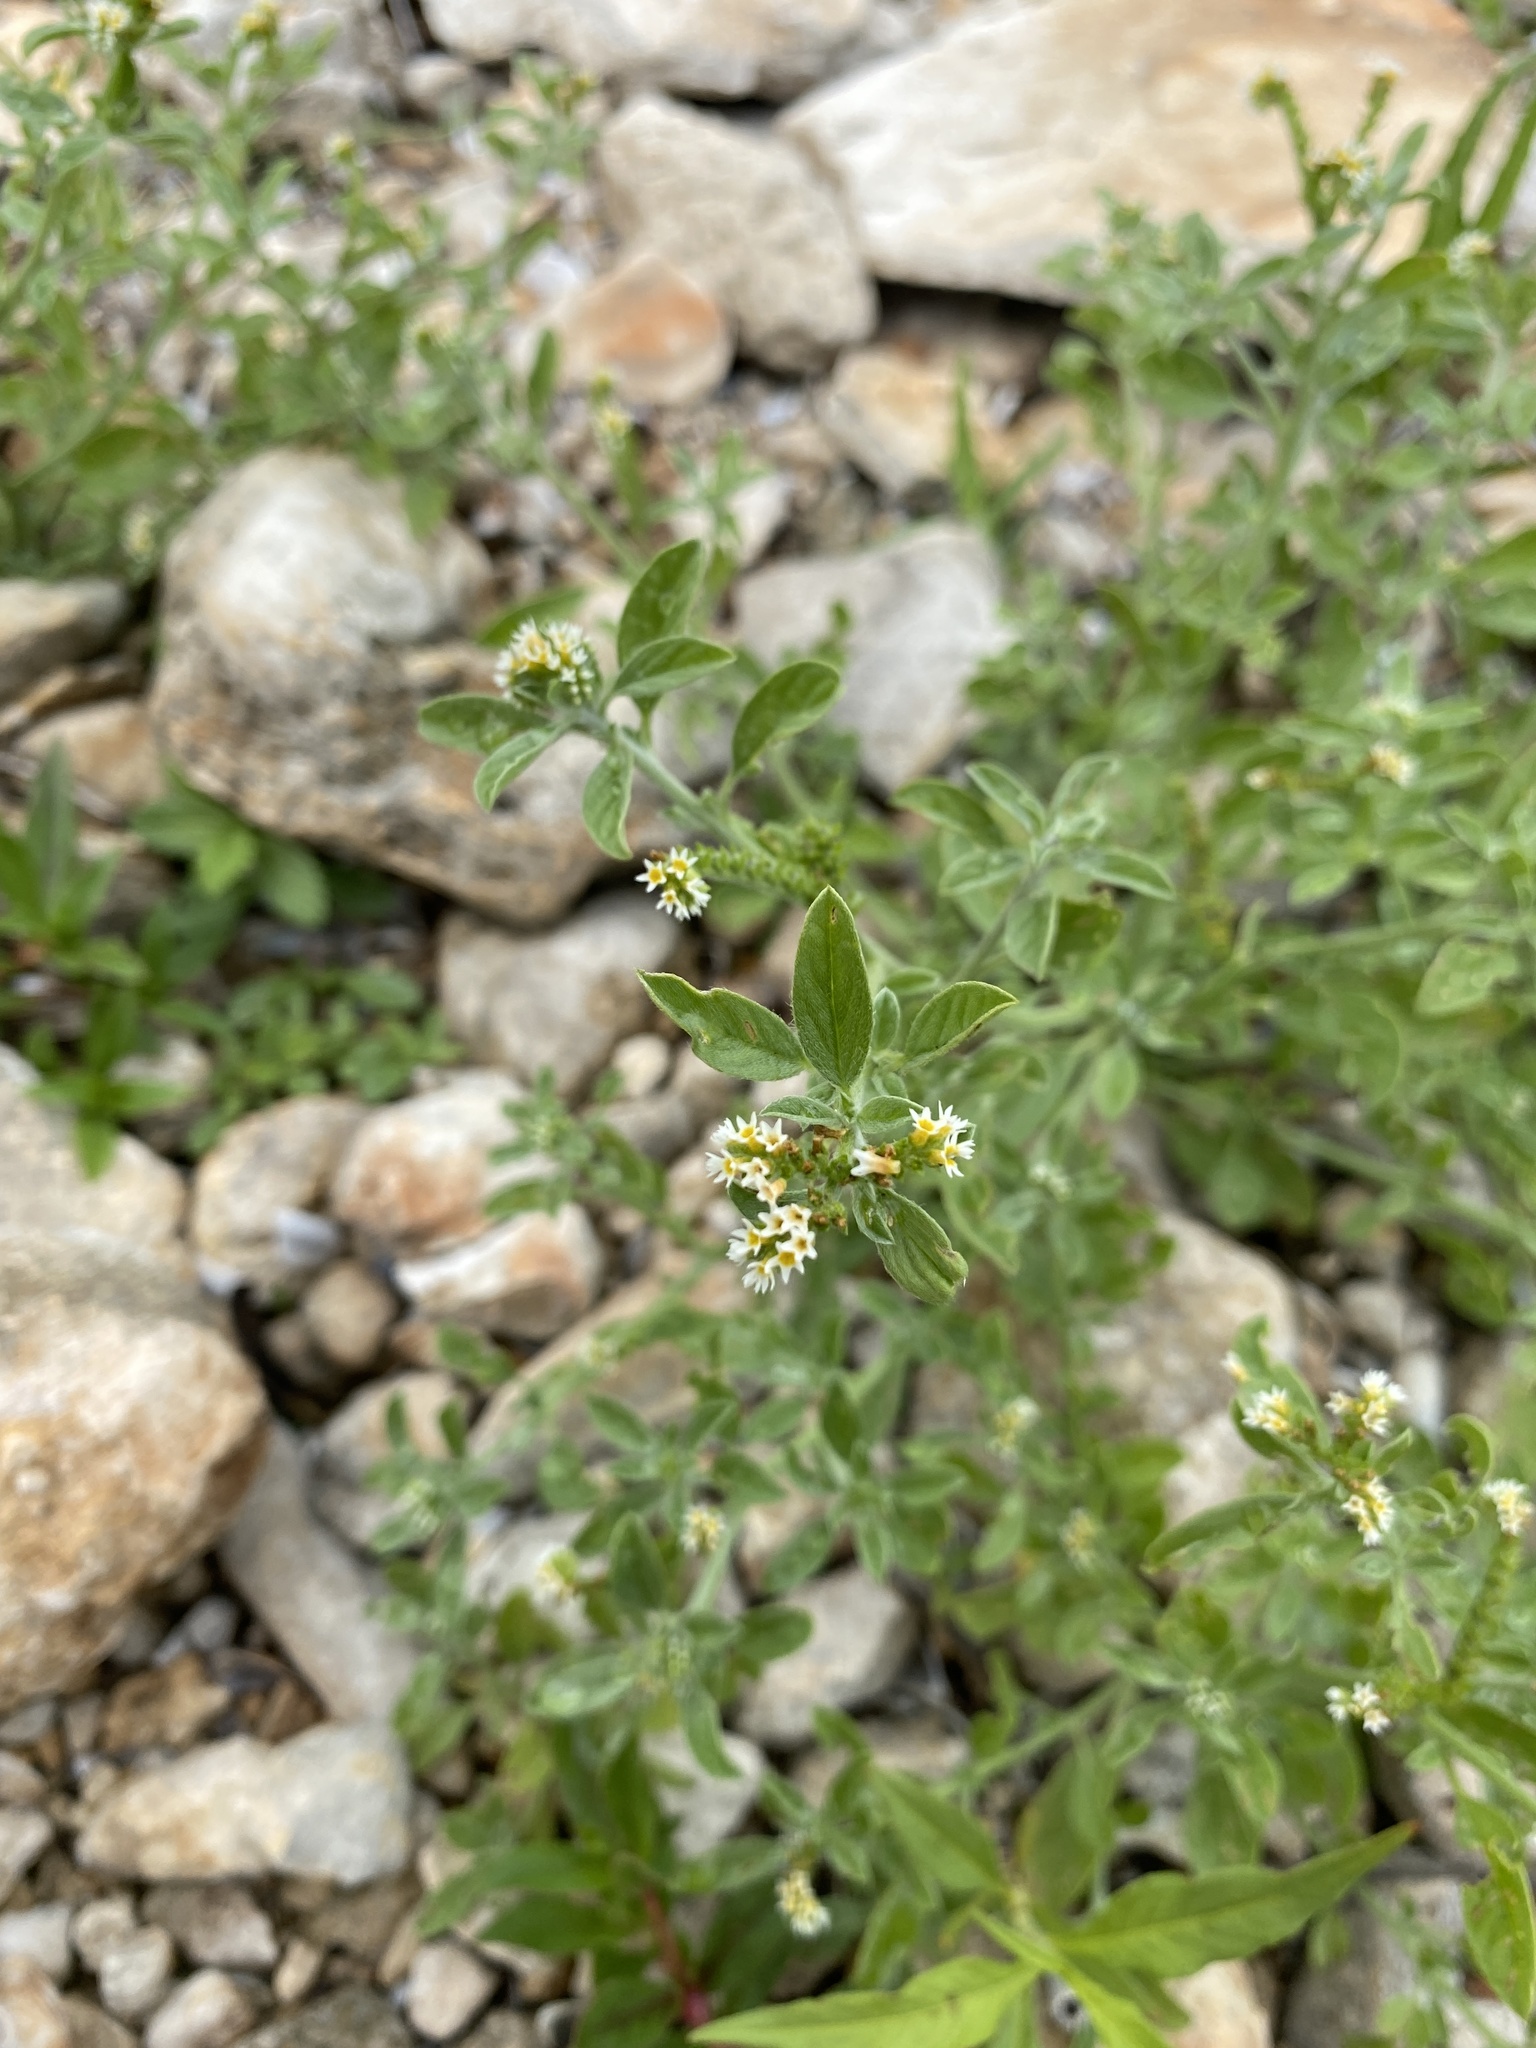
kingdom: Plantae
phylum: Tracheophyta
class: Magnoliopsida
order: Boraginales
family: Heliotropiaceae
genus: Euploca
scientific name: Euploca procumbens
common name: Fourspike heliotrope
